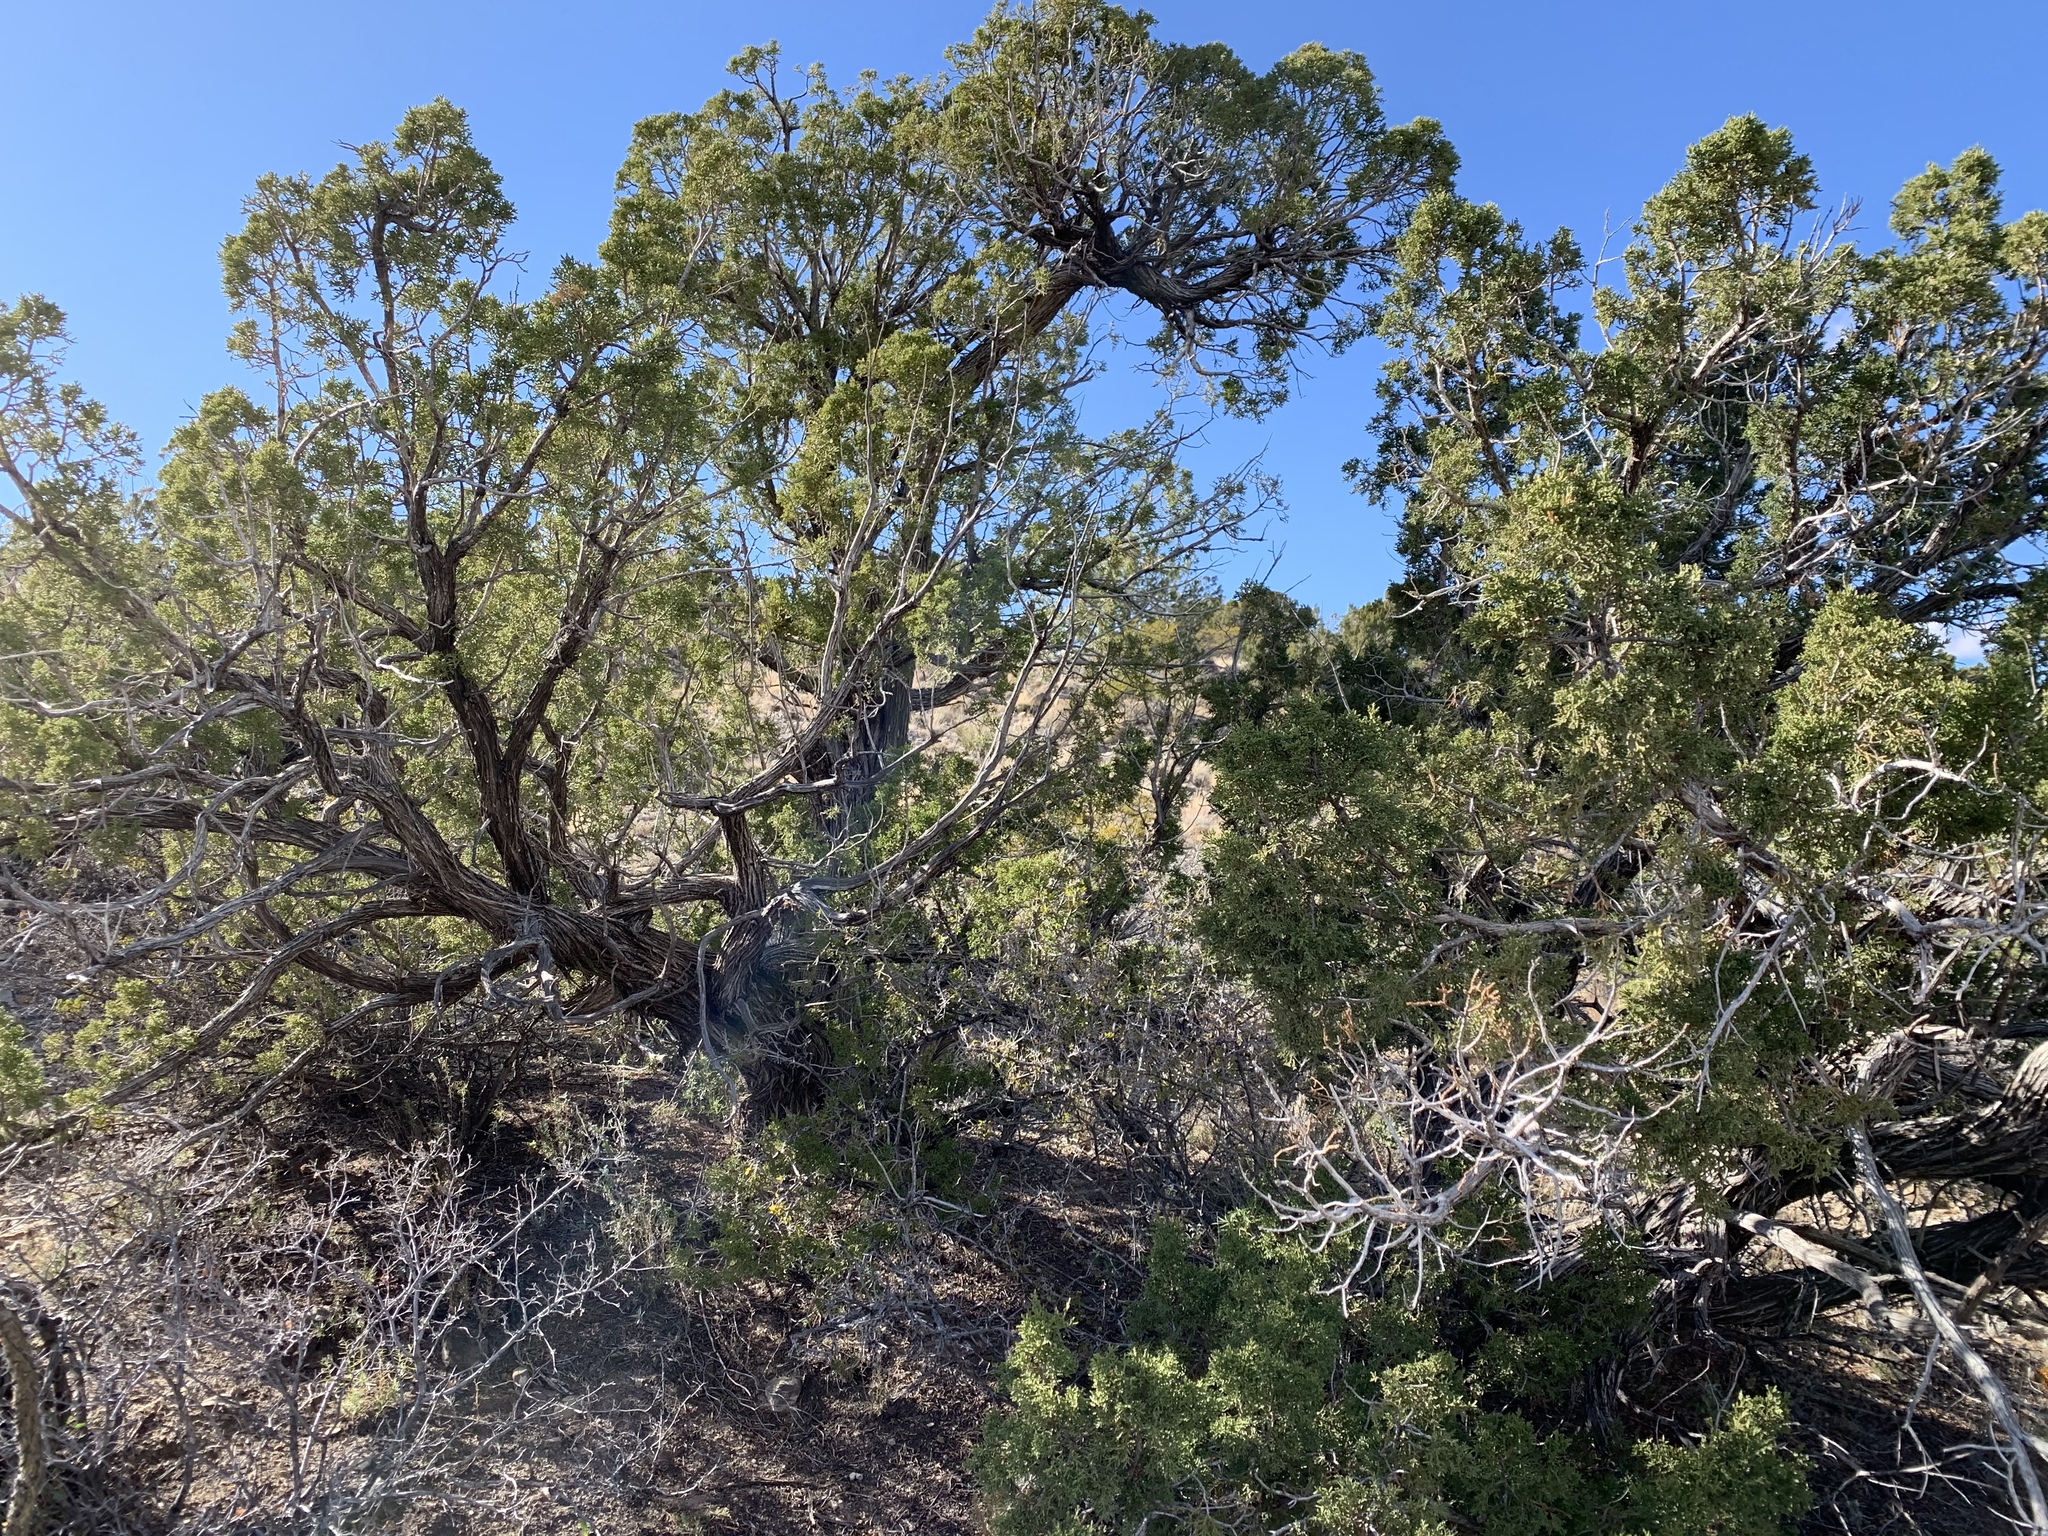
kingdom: Plantae
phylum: Tracheophyta
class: Pinopsida
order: Pinales
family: Cupressaceae
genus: Juniperus
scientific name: Juniperus monosperma
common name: One-seed juniper
